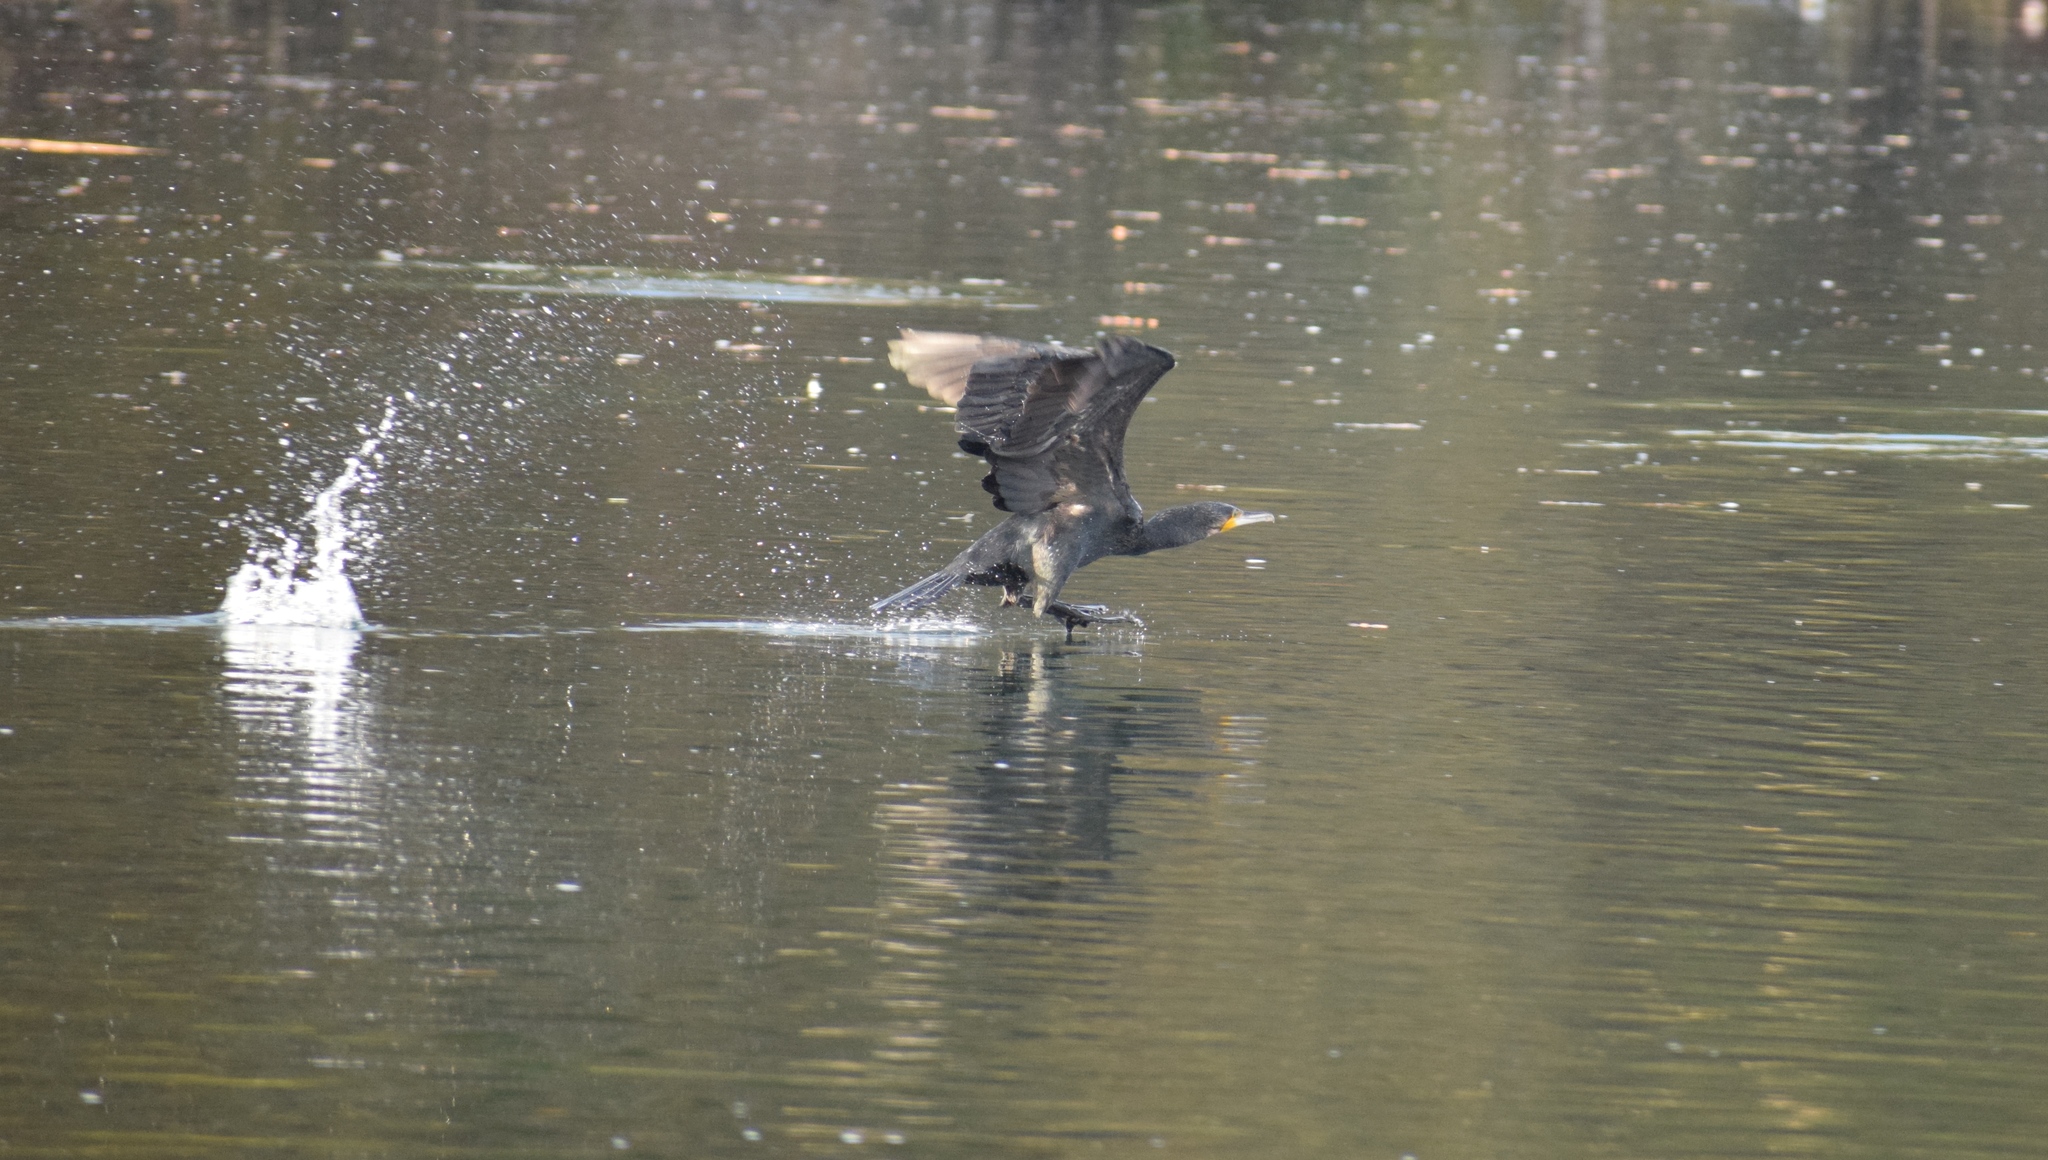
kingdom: Animalia
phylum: Chordata
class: Aves
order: Suliformes
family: Phalacrocoracidae
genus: Phalacrocorax
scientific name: Phalacrocorax carbo
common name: Great cormorant
